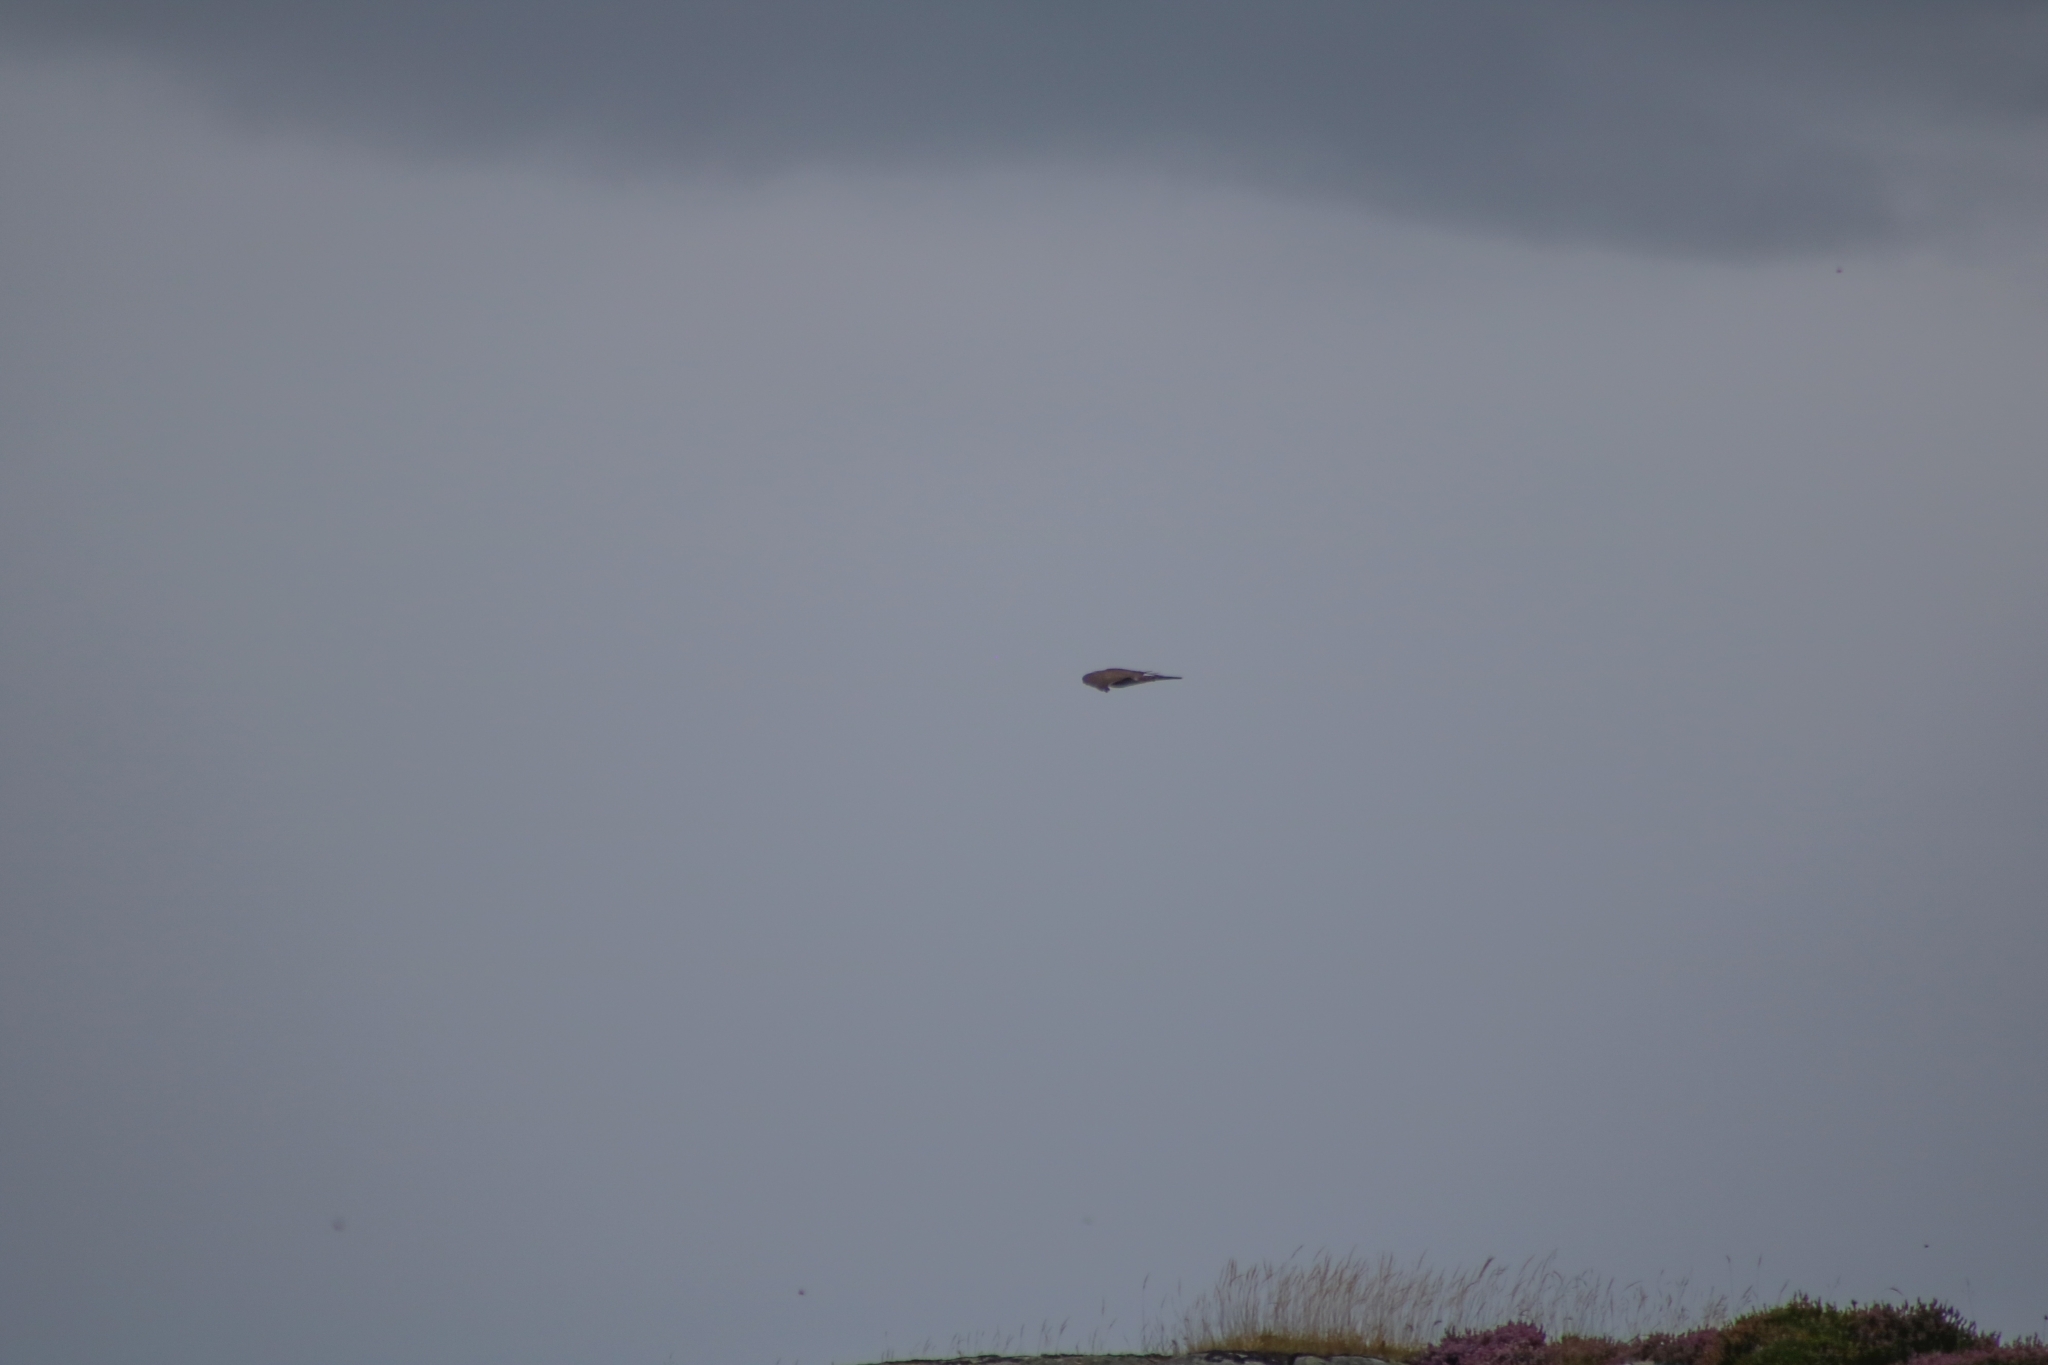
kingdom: Animalia
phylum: Chordata
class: Aves
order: Accipitriformes
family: Accipitridae
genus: Accipiter
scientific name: Accipiter nisus
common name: Eurasian sparrowhawk
